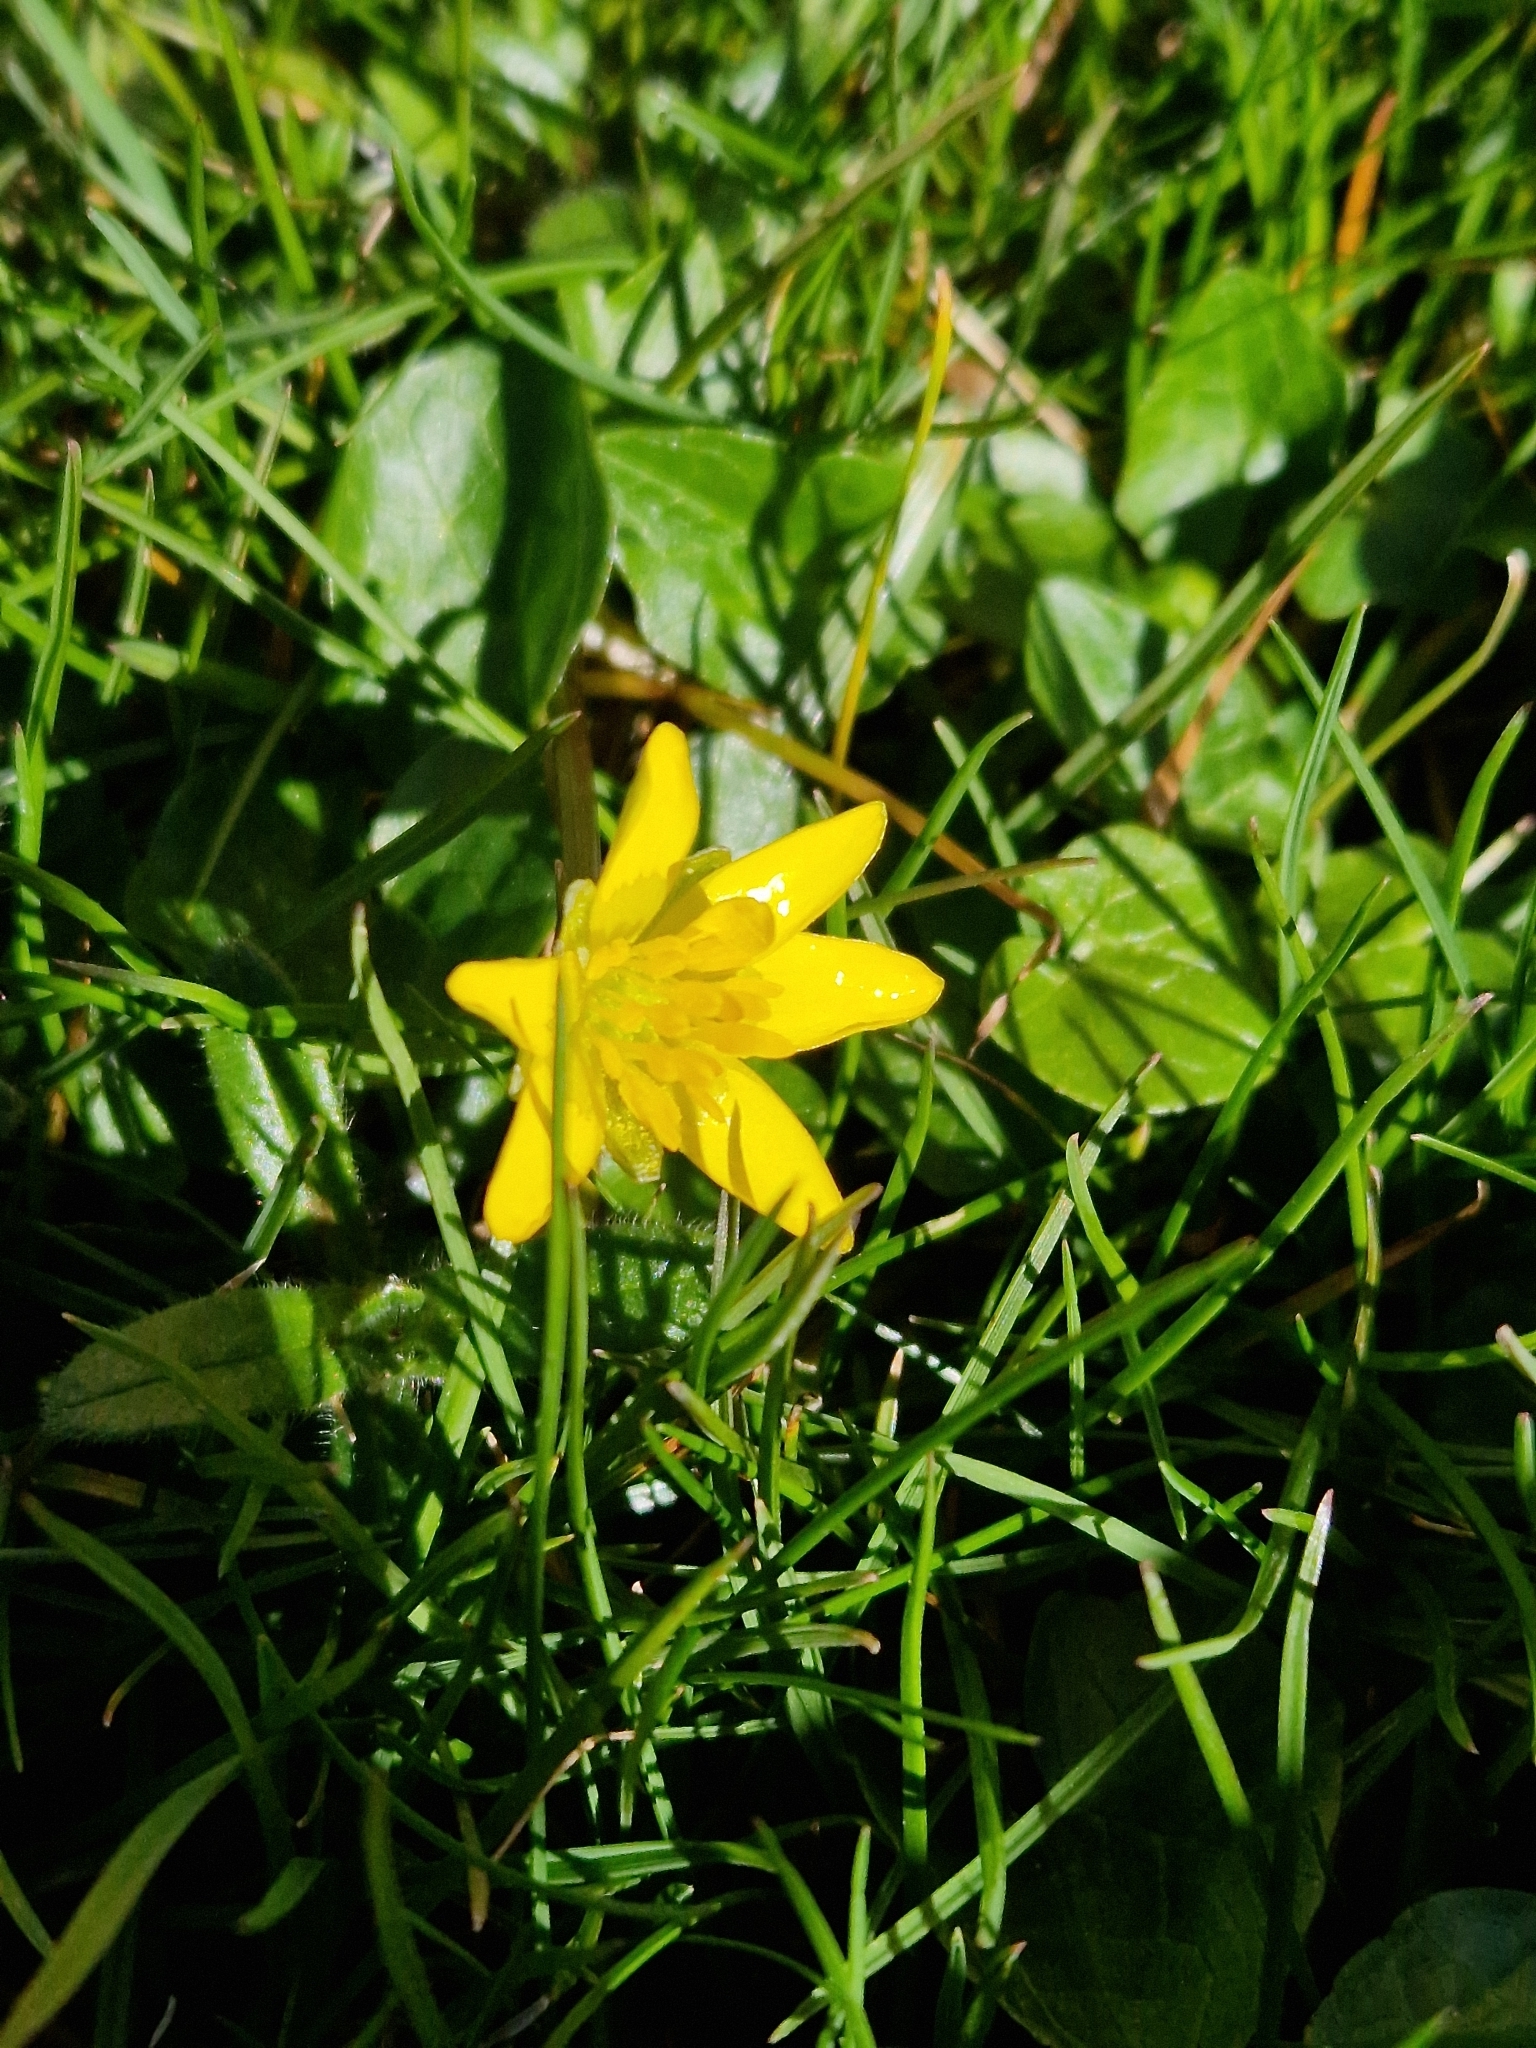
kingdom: Plantae
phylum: Tracheophyta
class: Magnoliopsida
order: Ranunculales
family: Ranunculaceae
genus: Ficaria
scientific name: Ficaria verna
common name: Lesser celandine
